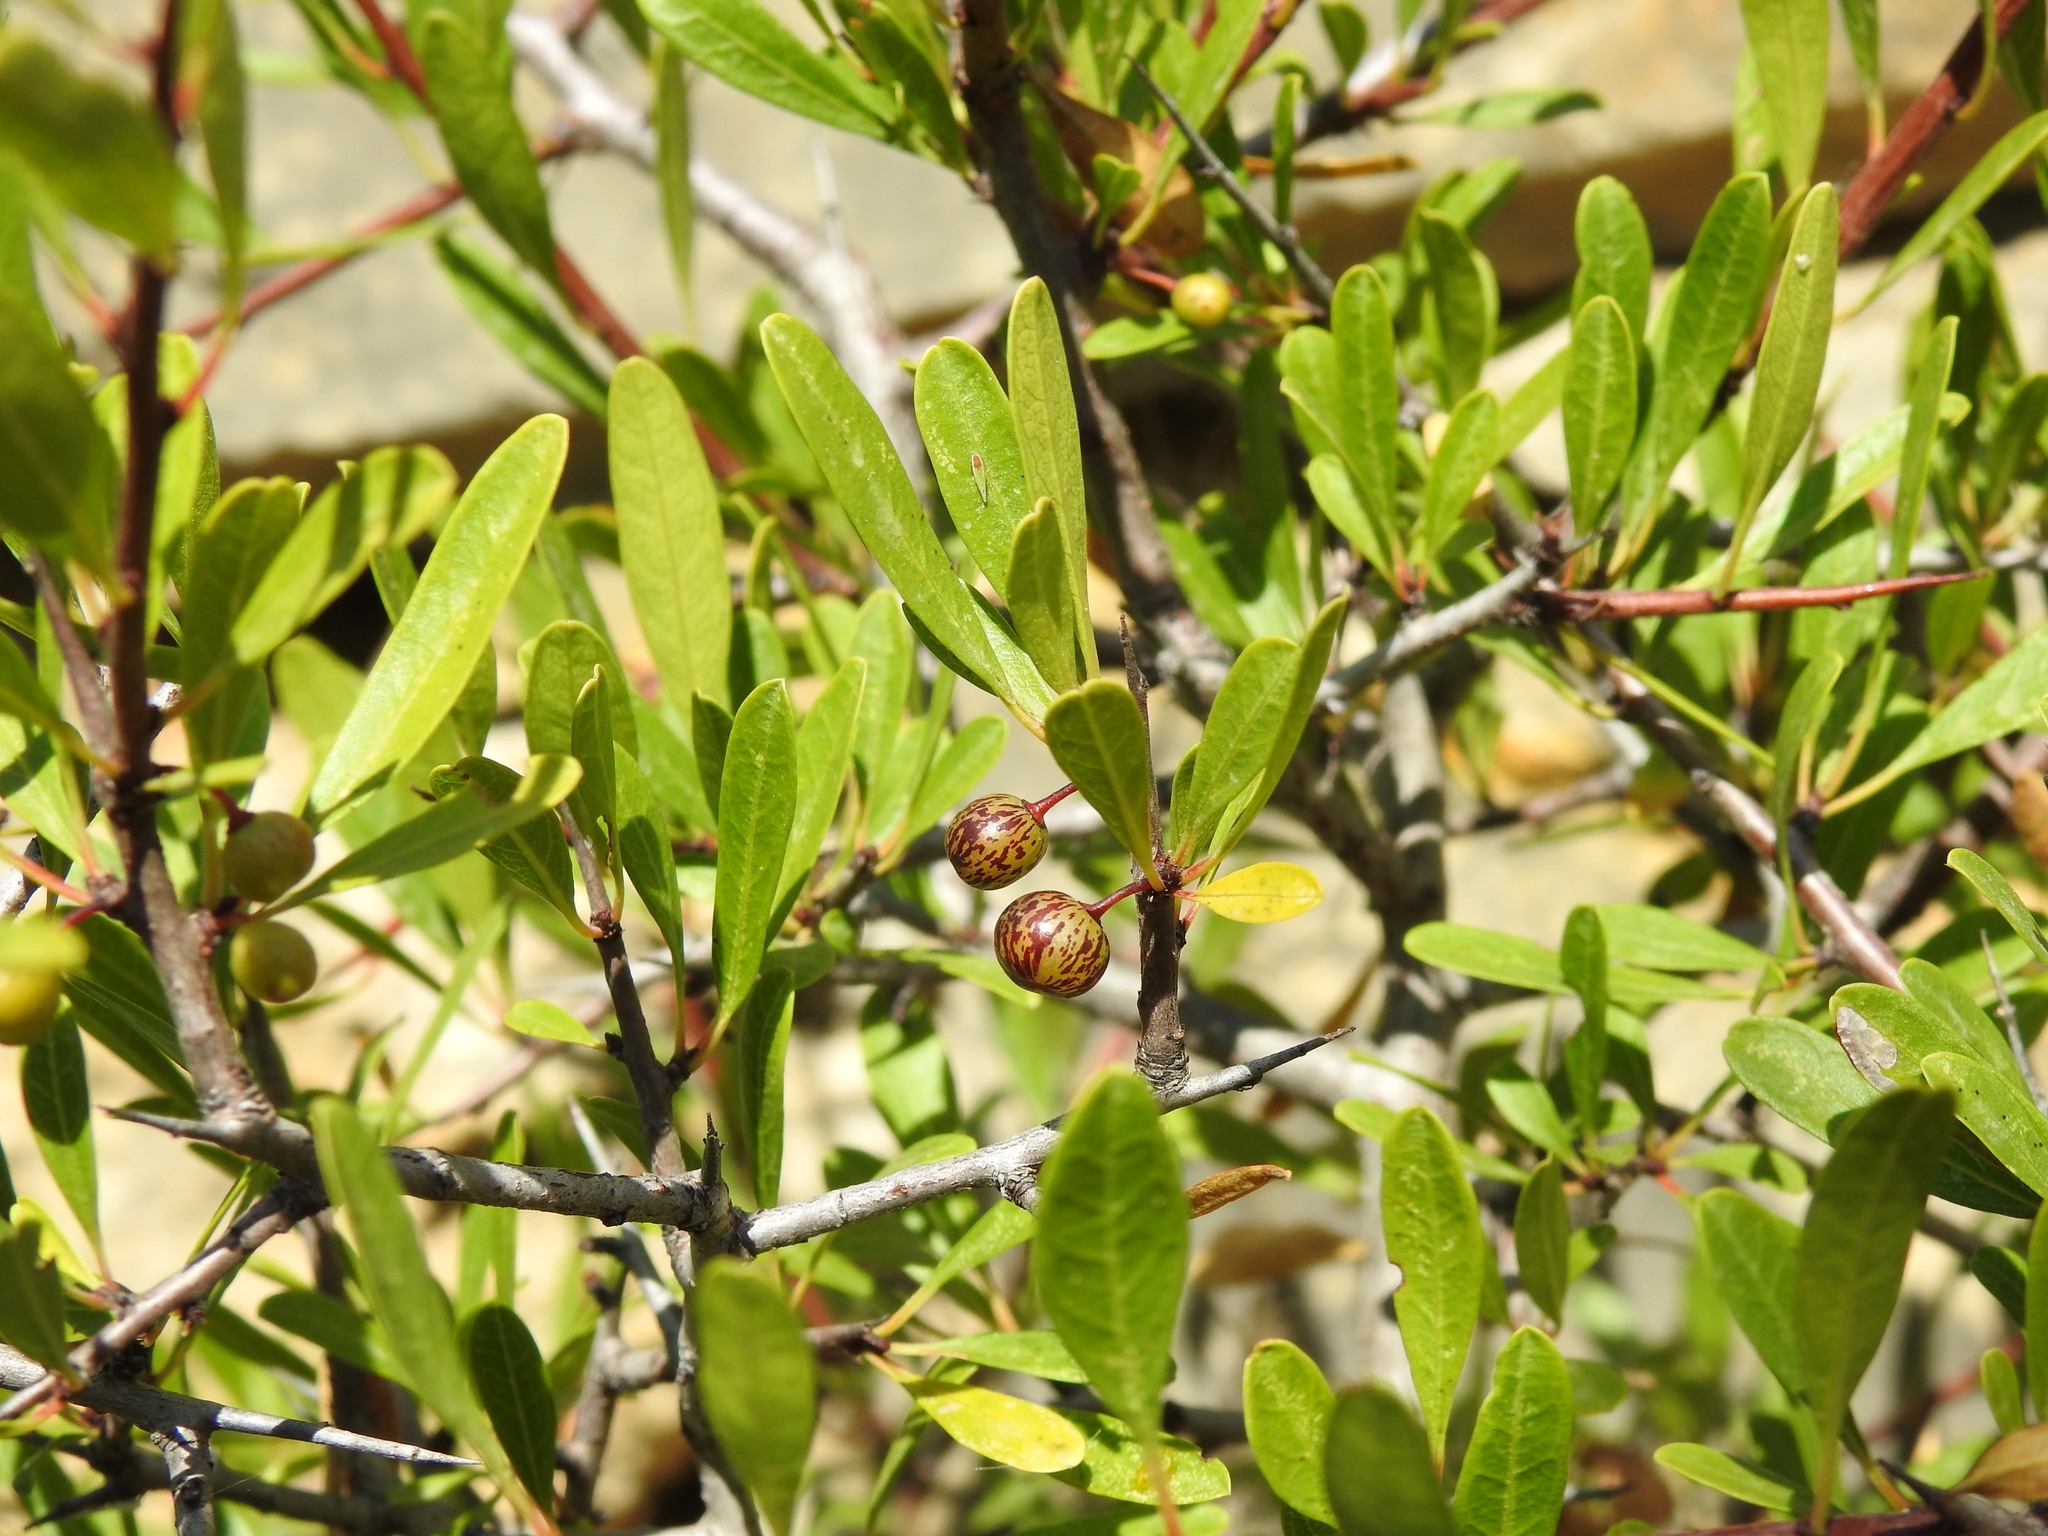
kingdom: Plantae
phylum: Tracheophyta
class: Magnoliopsida
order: Rosales
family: Rhamnaceae
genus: Rhamnus
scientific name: Rhamnus oleoides
